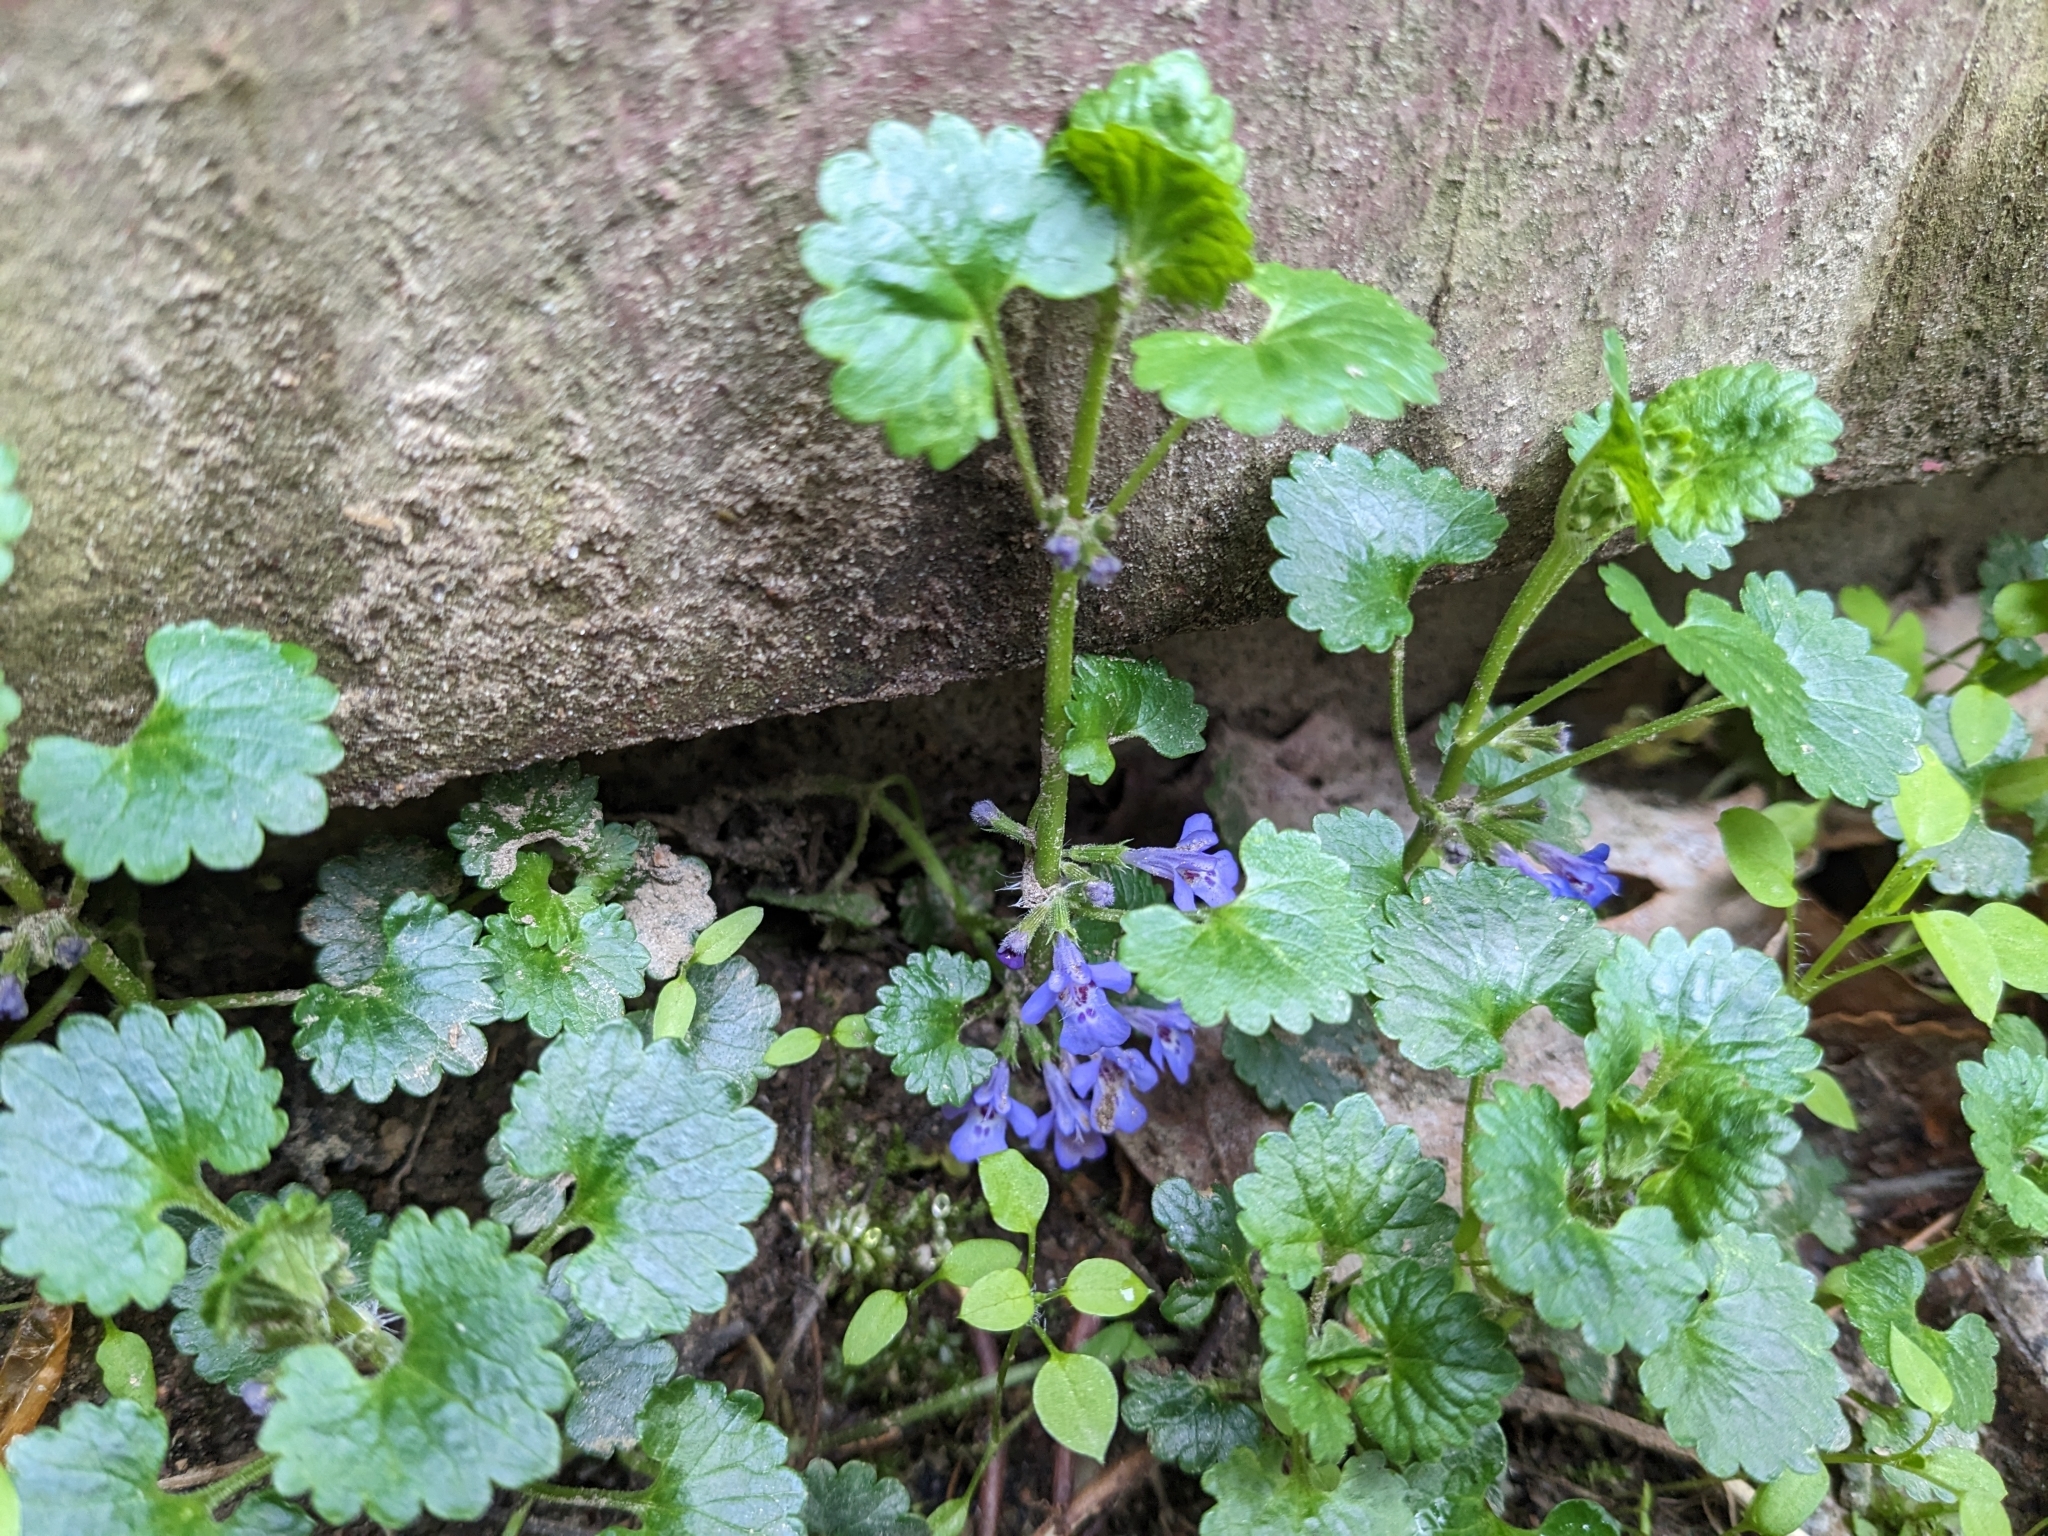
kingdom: Plantae
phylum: Tracheophyta
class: Magnoliopsida
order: Lamiales
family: Lamiaceae
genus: Glechoma
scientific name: Glechoma hederacea
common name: Ground ivy
